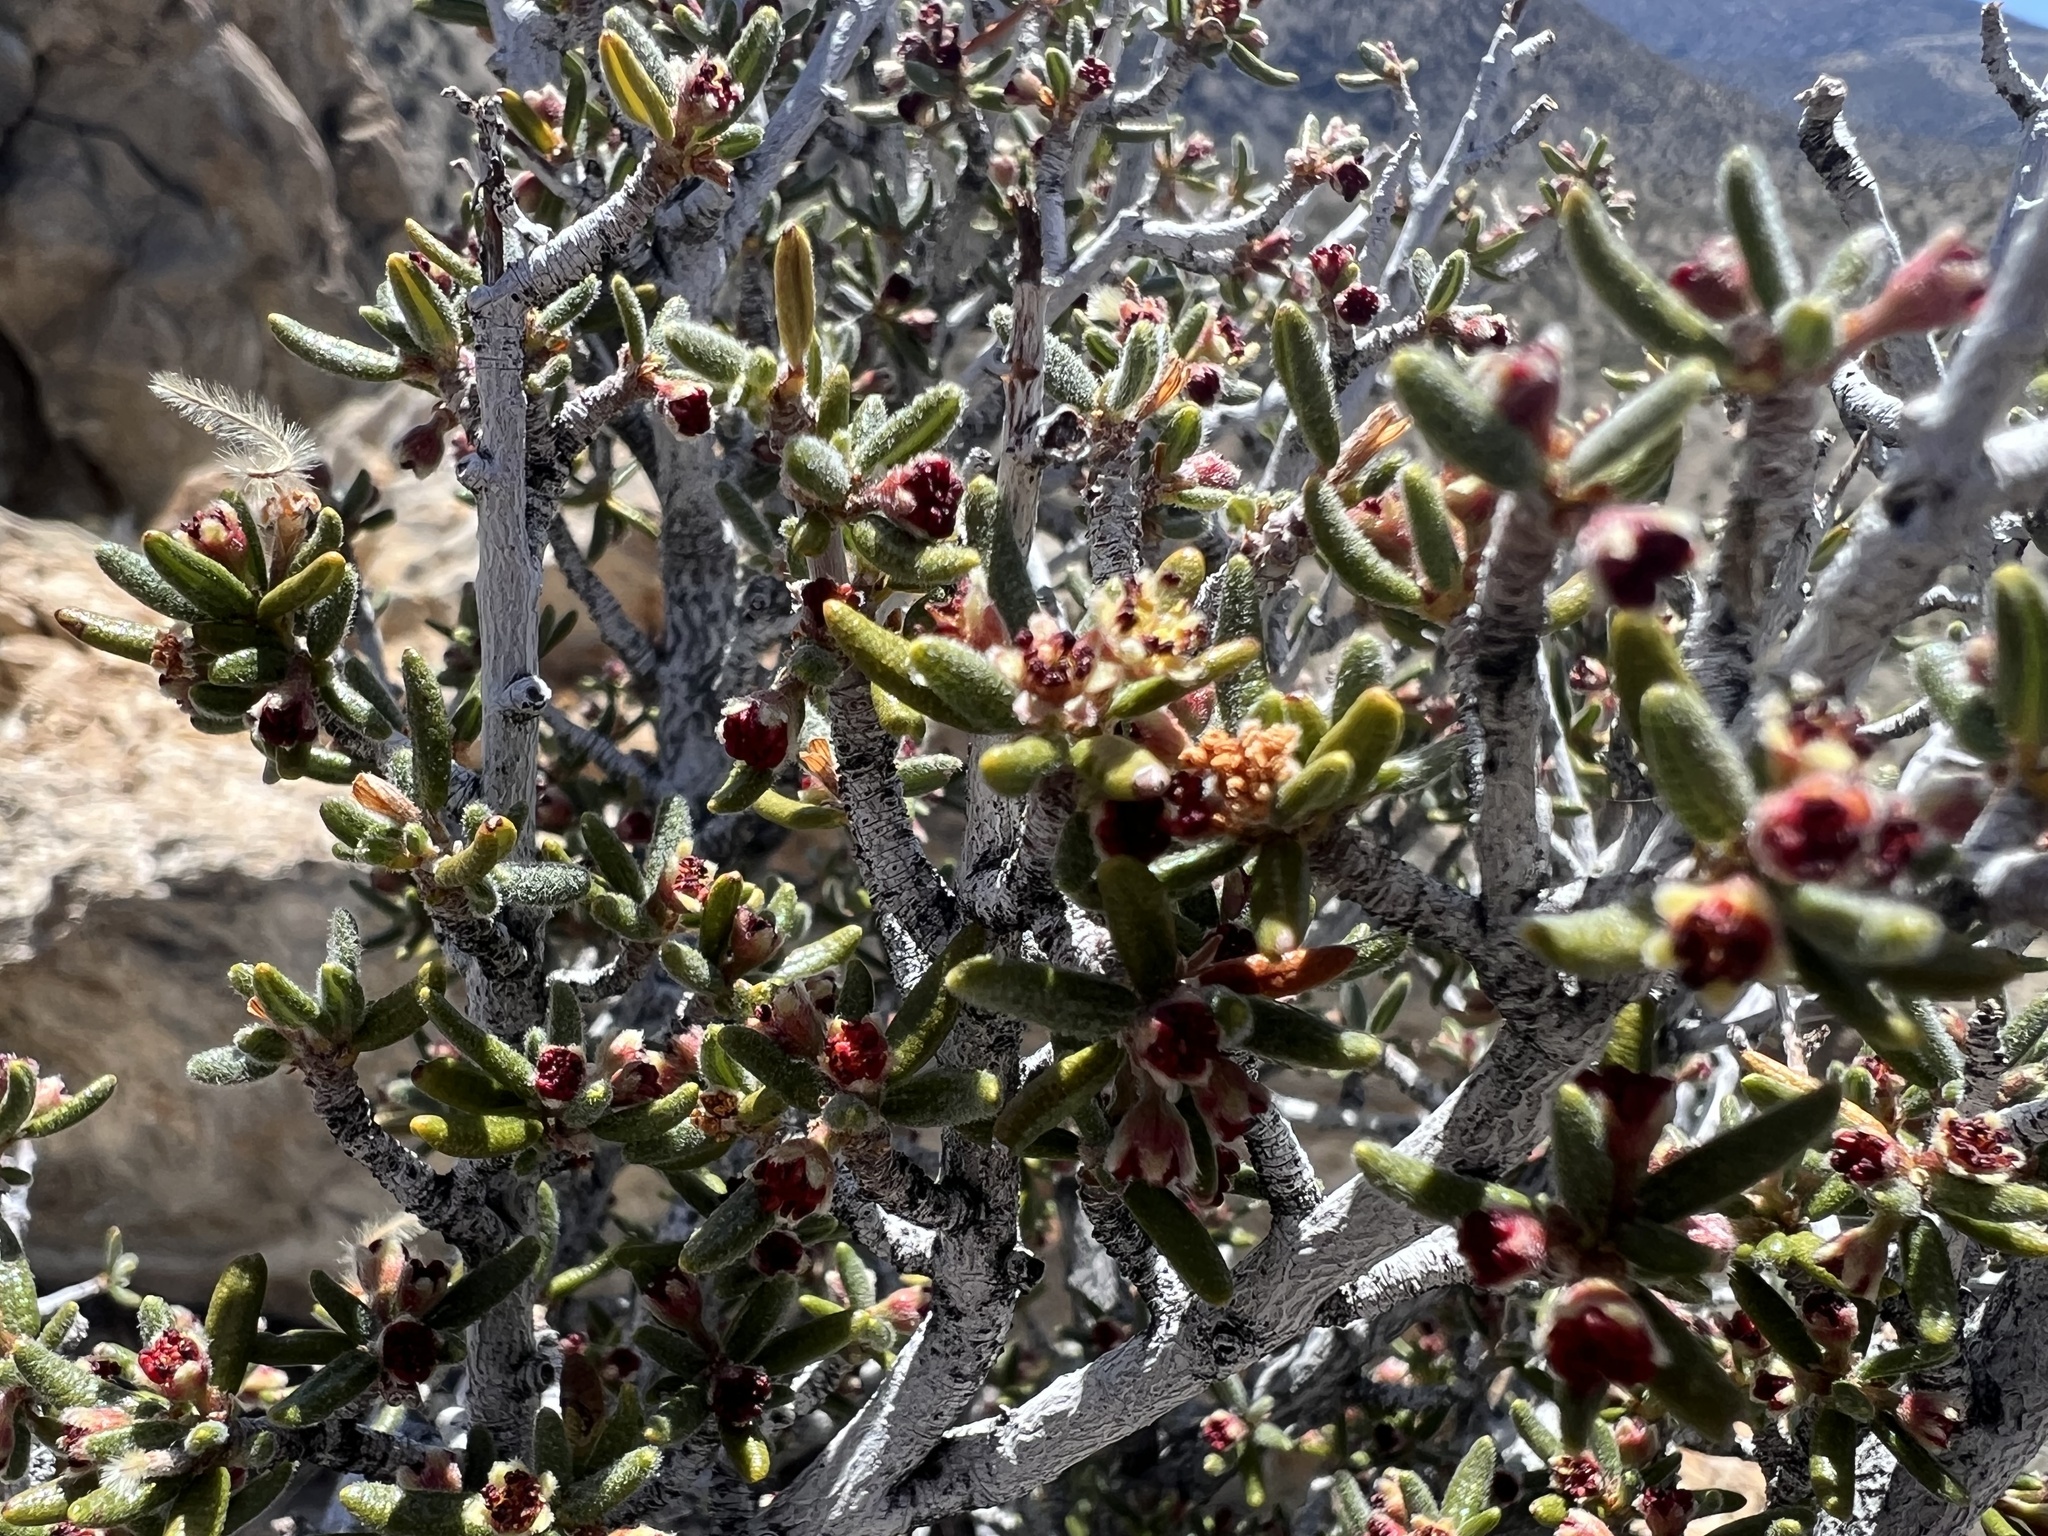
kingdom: Plantae
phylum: Tracheophyta
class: Magnoliopsida
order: Rosales
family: Rosaceae
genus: Cercocarpus
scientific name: Cercocarpus intricatus
